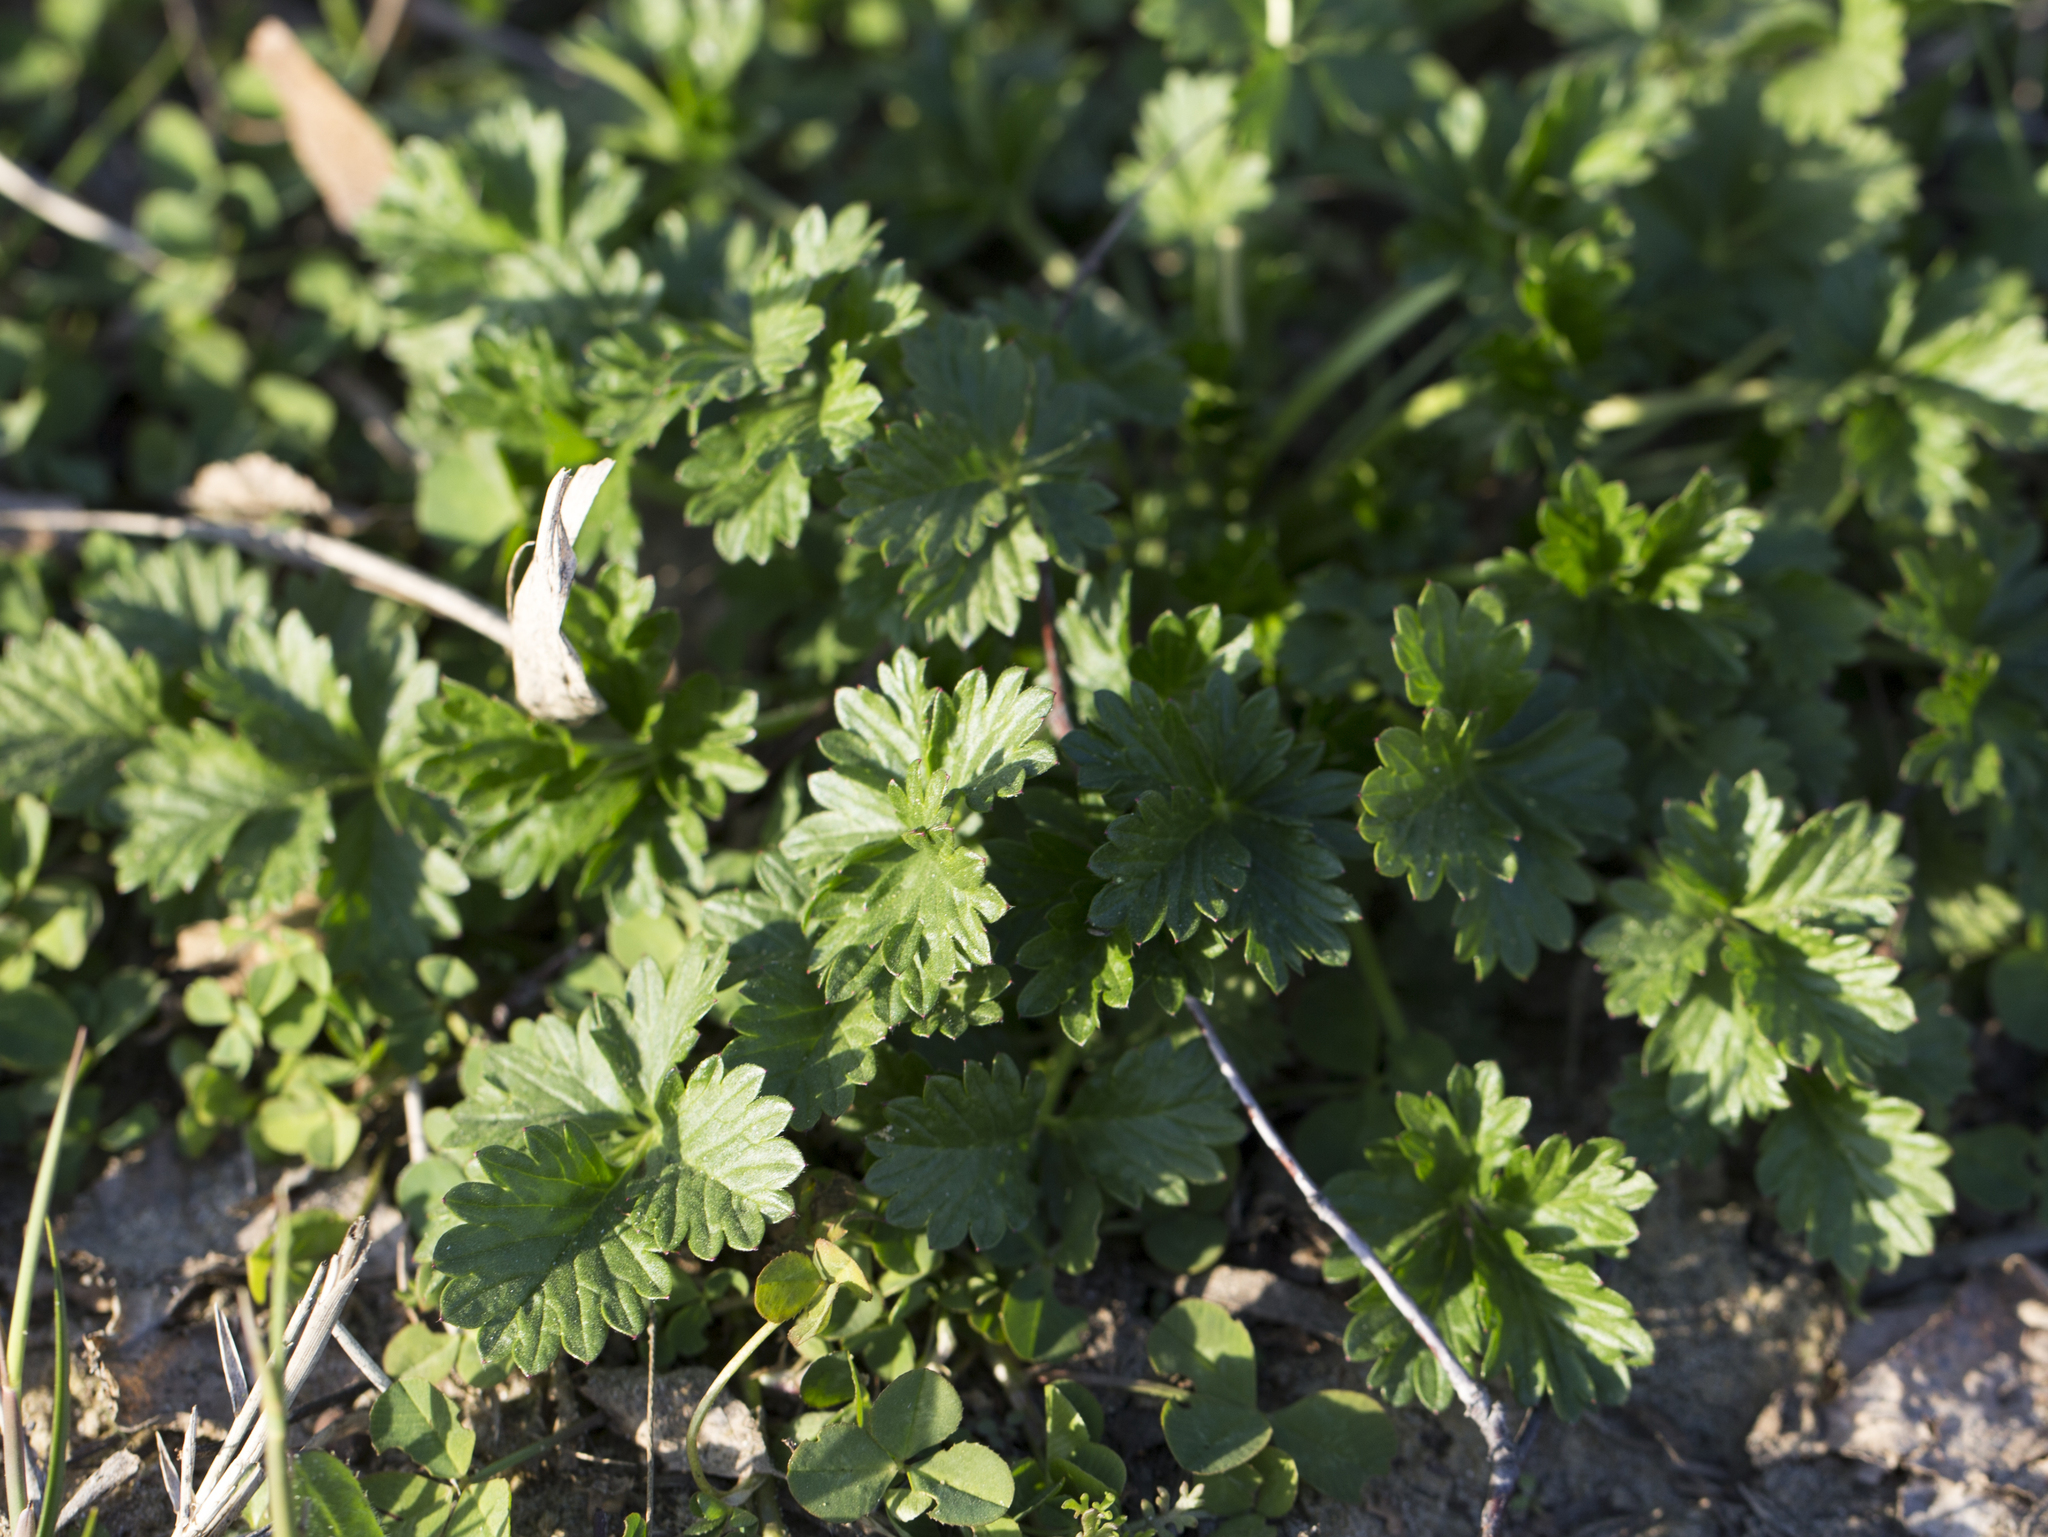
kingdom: Plantae
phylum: Tracheophyta
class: Magnoliopsida
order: Rosales
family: Rosaceae
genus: Potentilla
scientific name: Potentilla intermedia
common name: Downy cinquefoil
